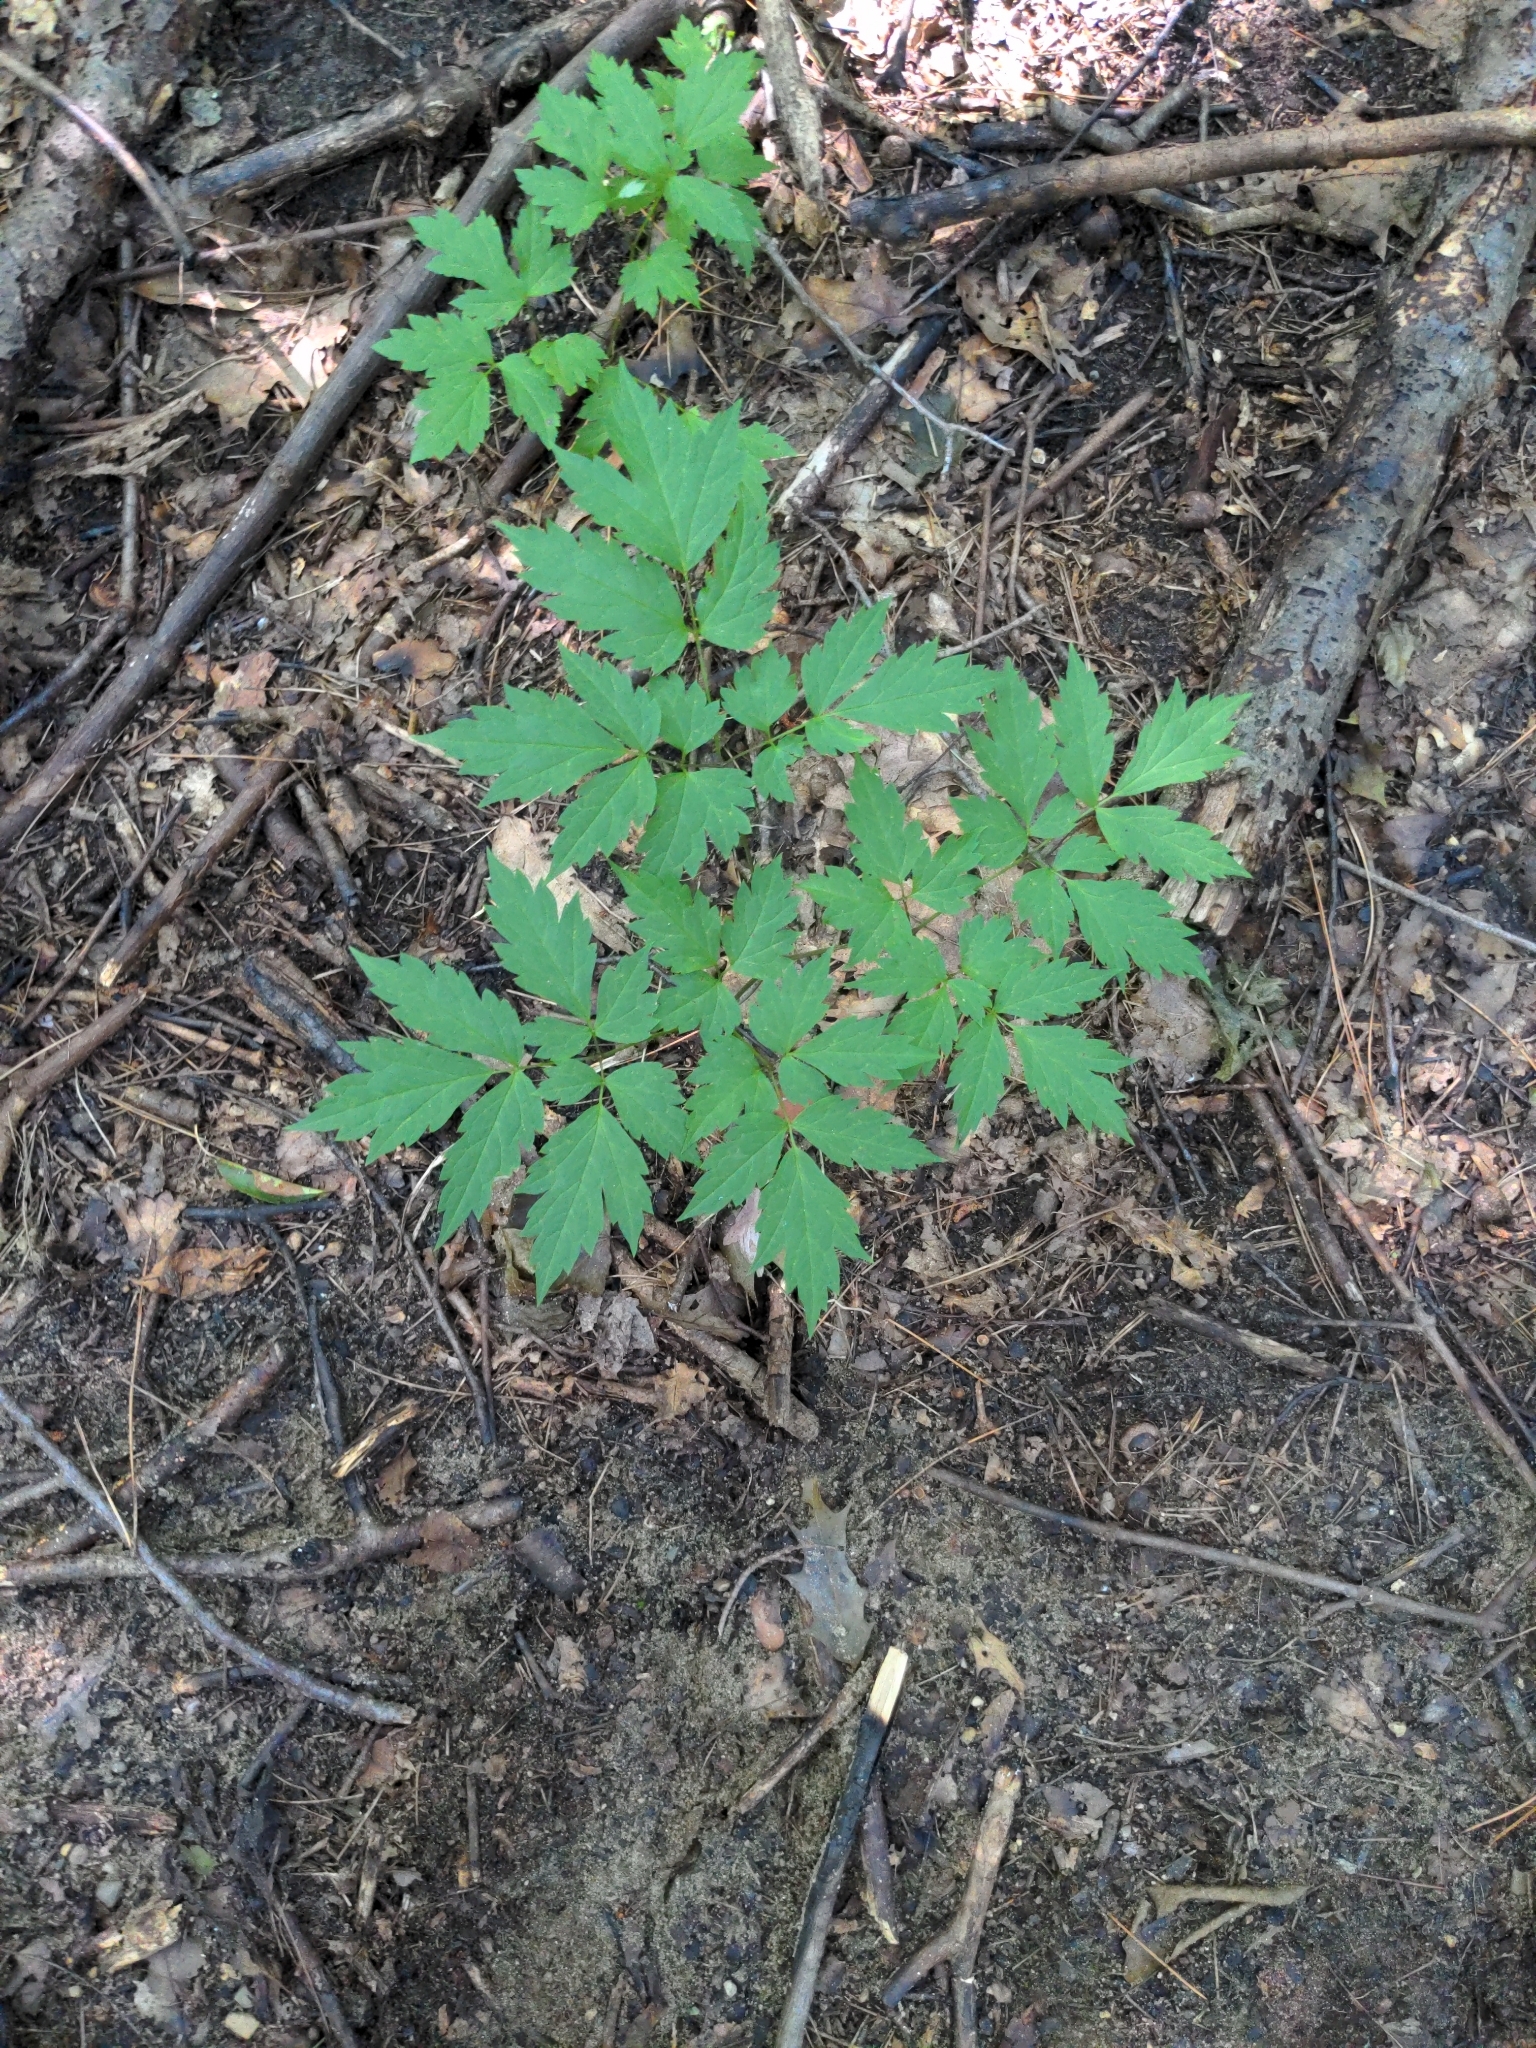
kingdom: Plantae
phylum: Tracheophyta
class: Magnoliopsida
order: Ranunculales
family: Ranunculaceae
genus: Actaea
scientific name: Actaea racemosa
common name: Black cohosh
